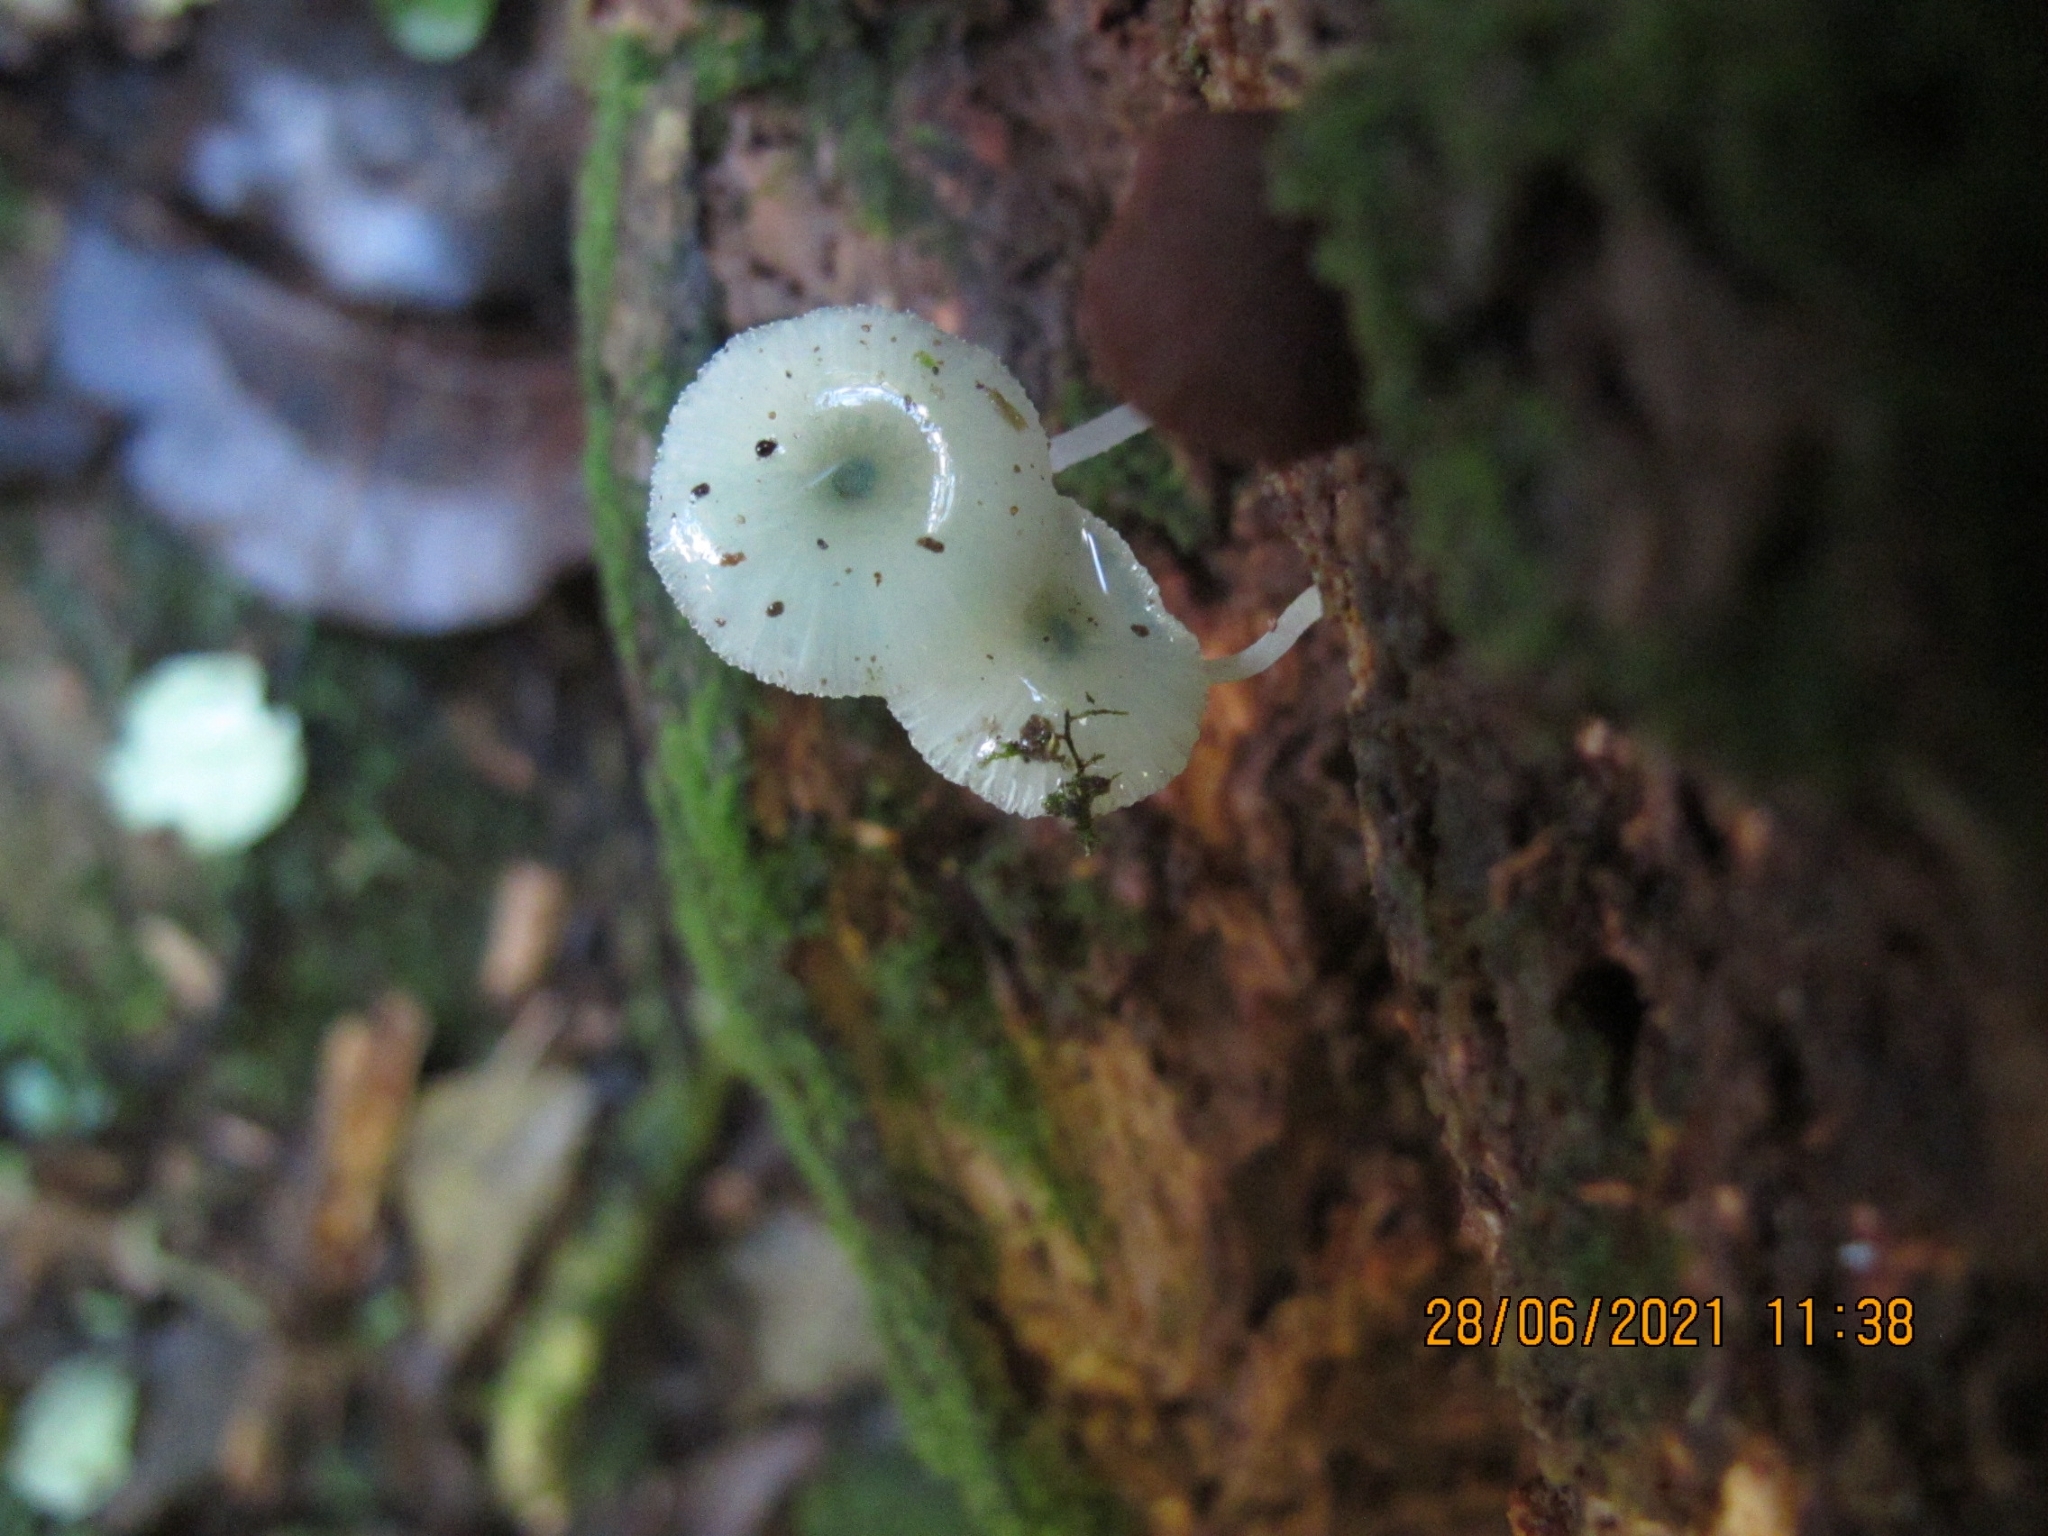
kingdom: Fungi
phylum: Basidiomycota
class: Agaricomycetes
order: Agaricales
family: Mycenaceae
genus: Mycena
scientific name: Mycena interrupta
